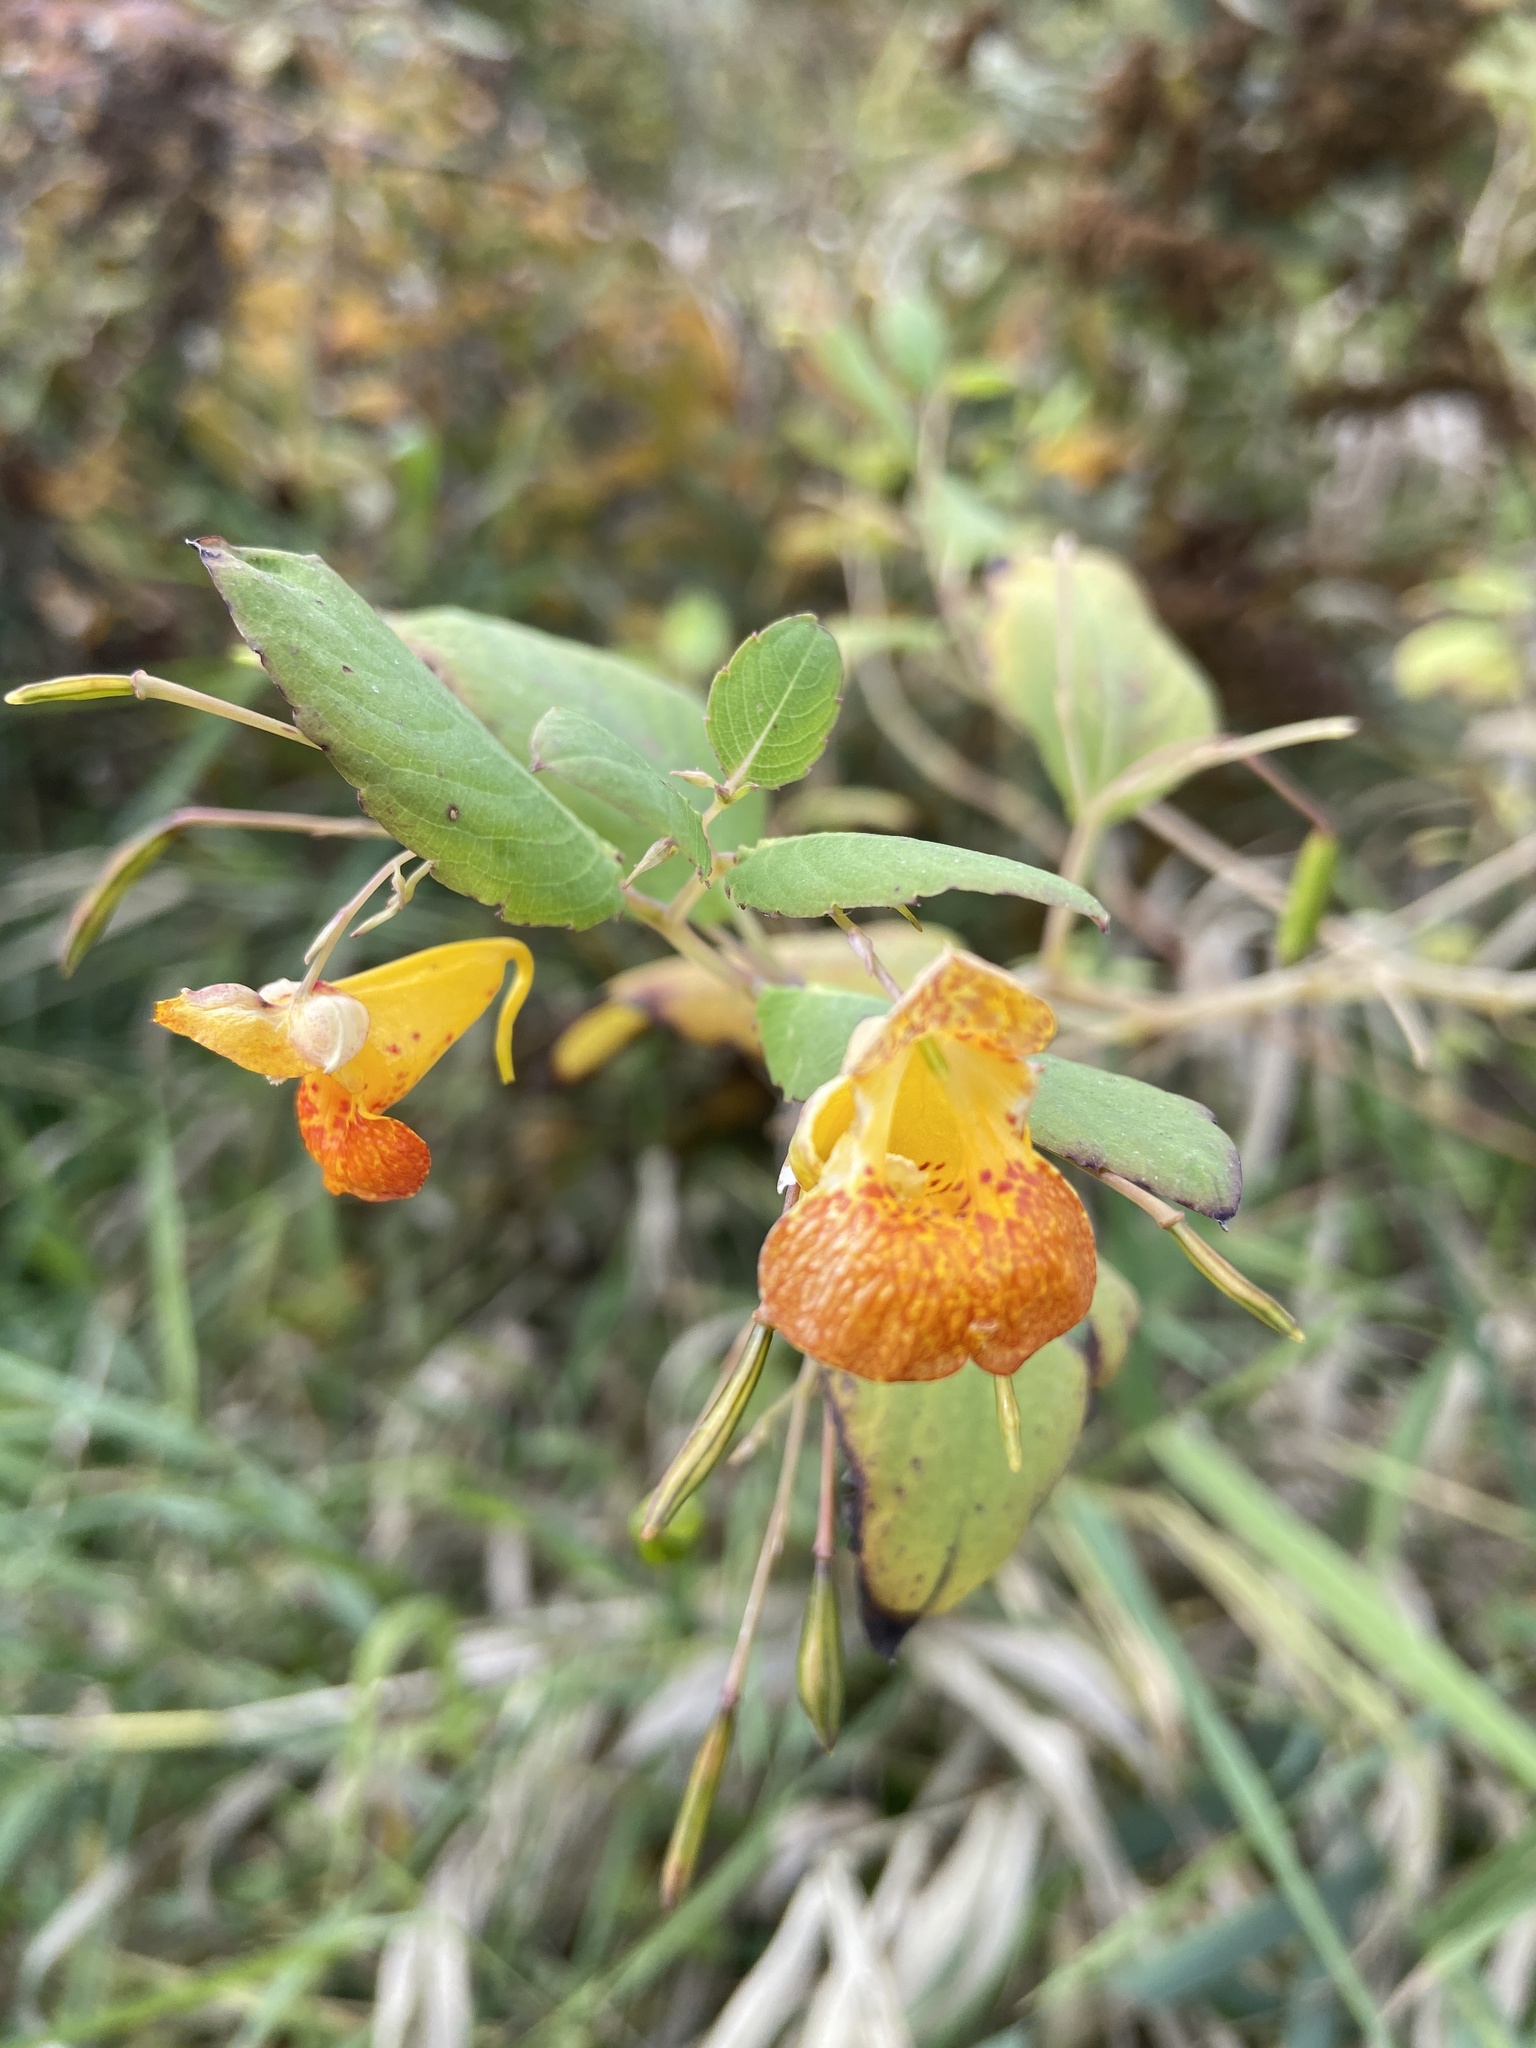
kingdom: Plantae
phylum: Tracheophyta
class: Magnoliopsida
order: Ericales
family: Balsaminaceae
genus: Impatiens
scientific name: Impatiens capensis
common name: Orange balsam
